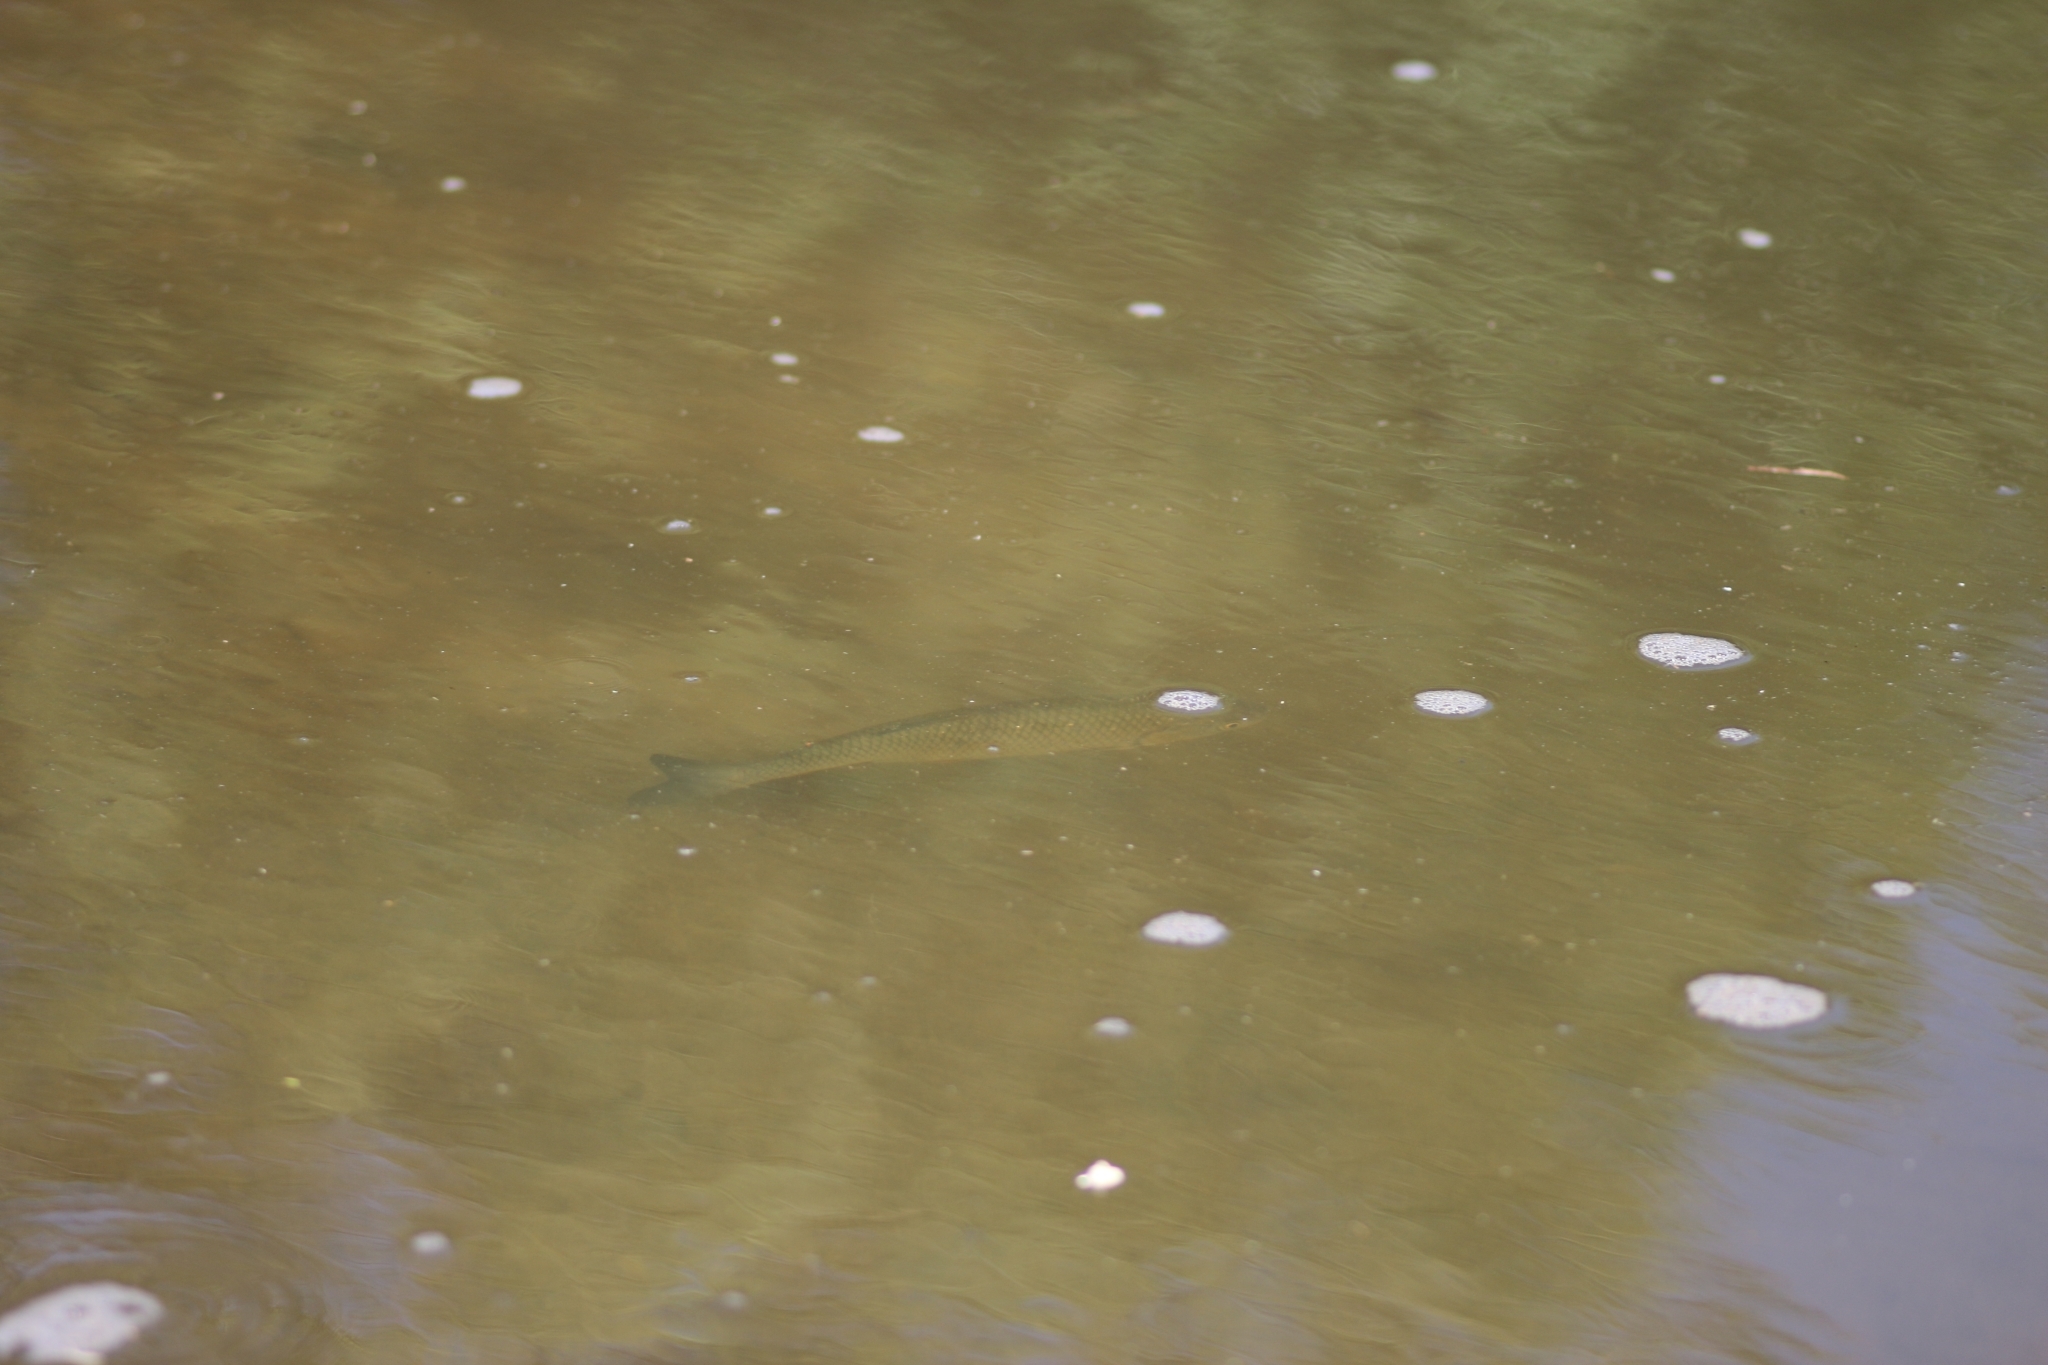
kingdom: Animalia
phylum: Chordata
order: Cypriniformes
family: Cyprinidae
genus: Squalius
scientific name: Squalius cephalus
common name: Chub
